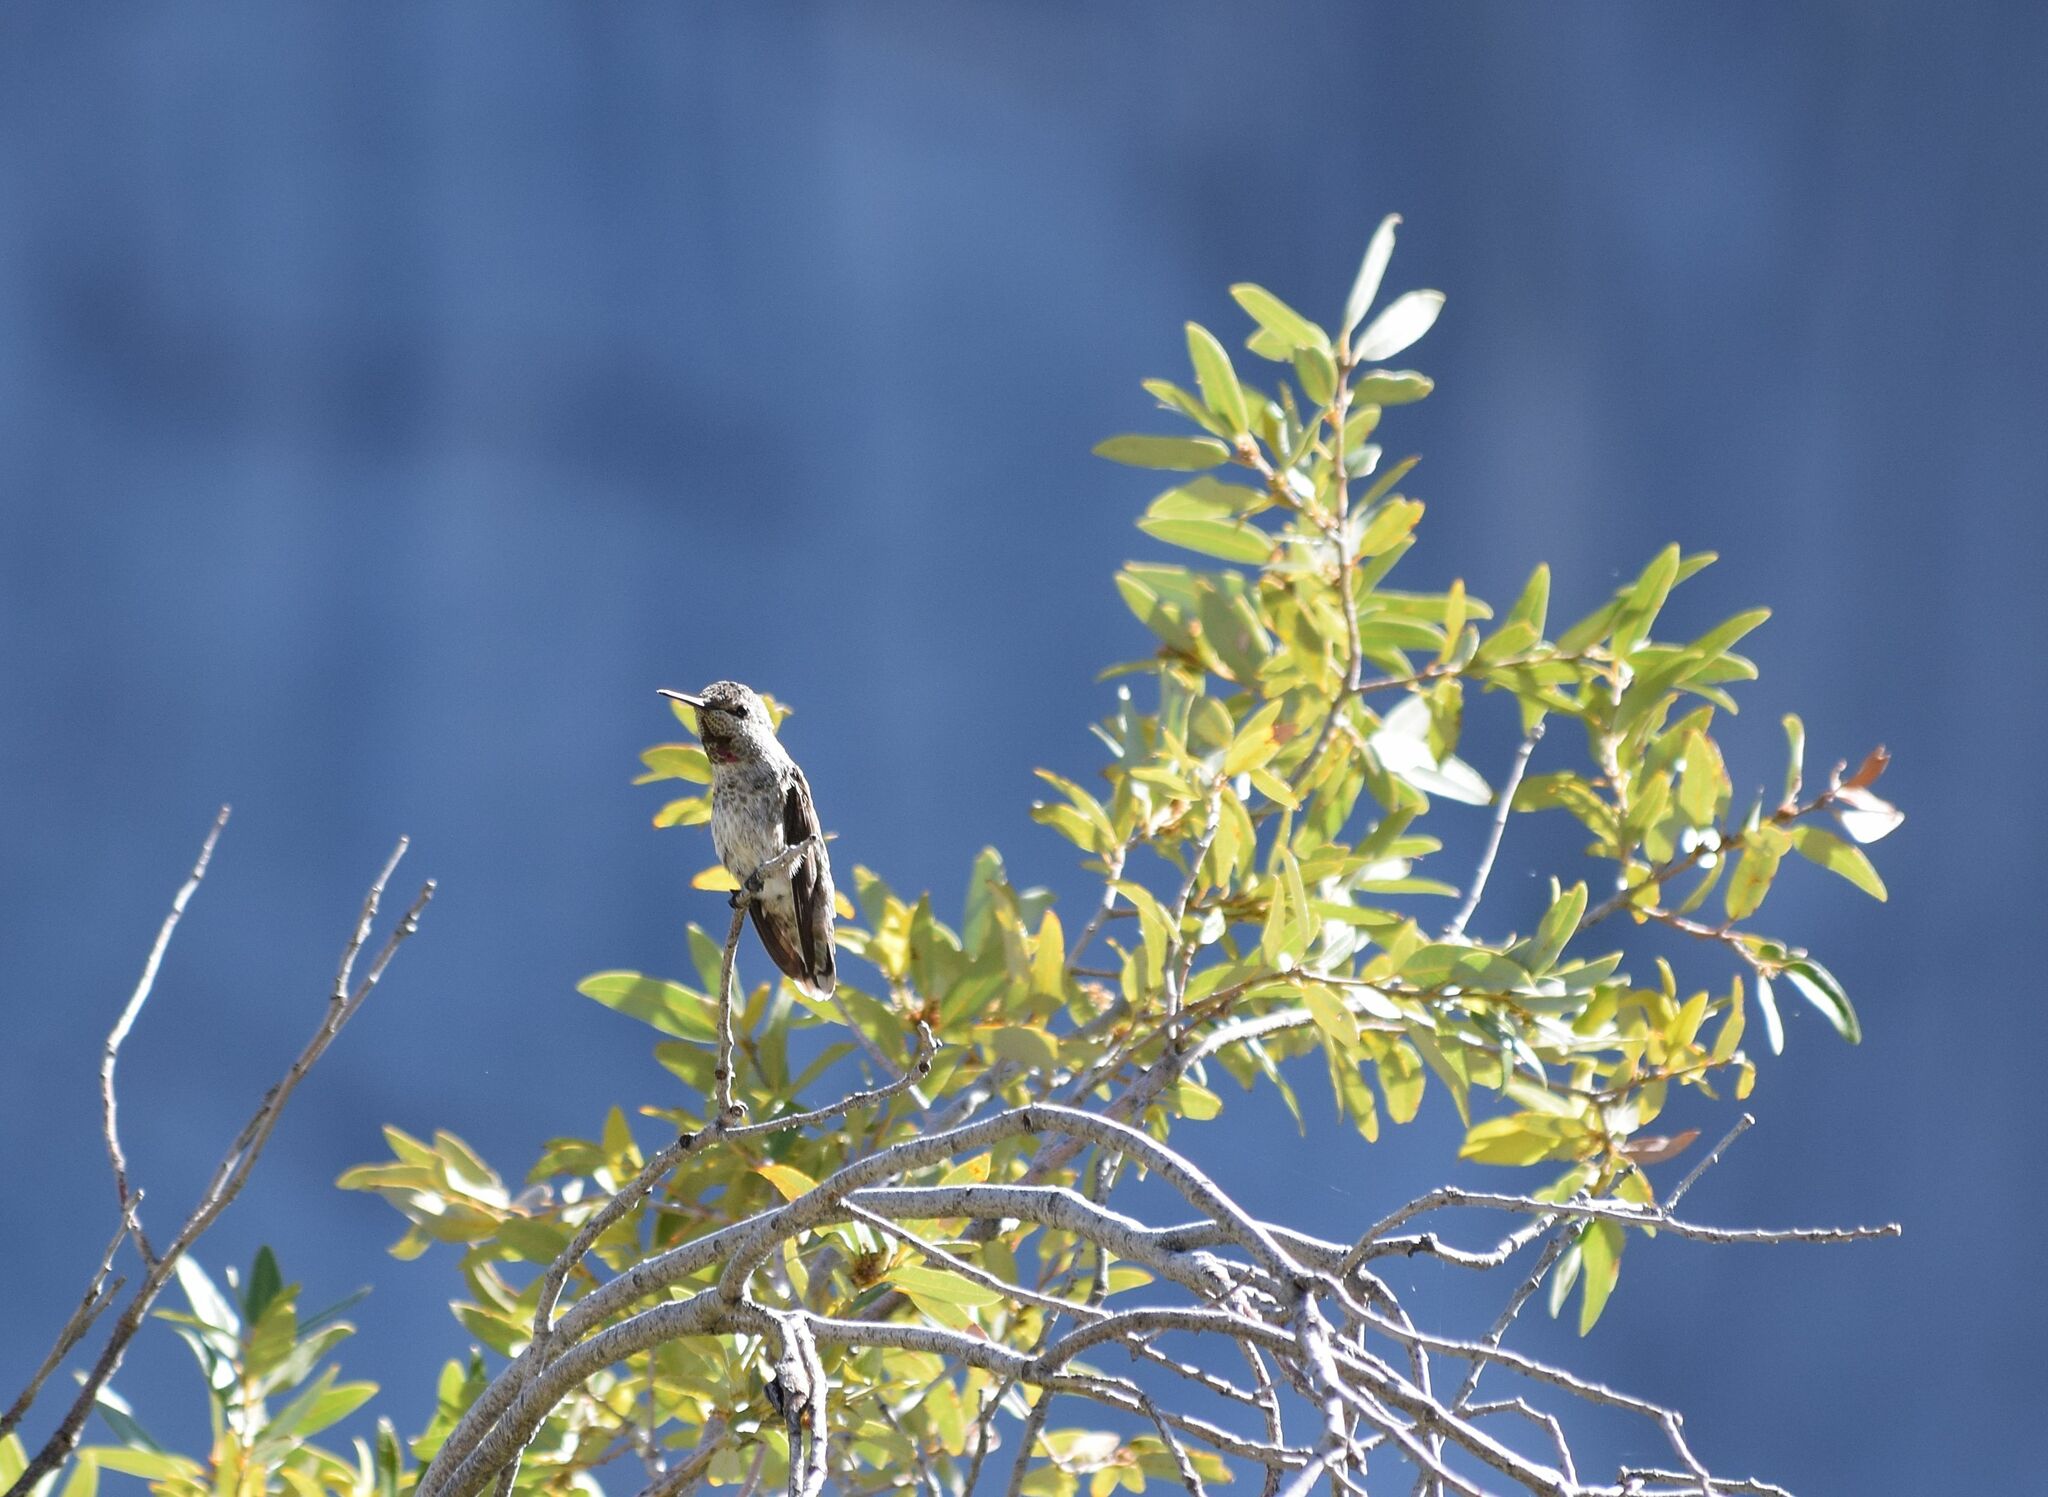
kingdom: Animalia
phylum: Chordata
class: Aves
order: Apodiformes
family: Trochilidae
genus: Calypte
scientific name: Calypte anna
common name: Anna's hummingbird
